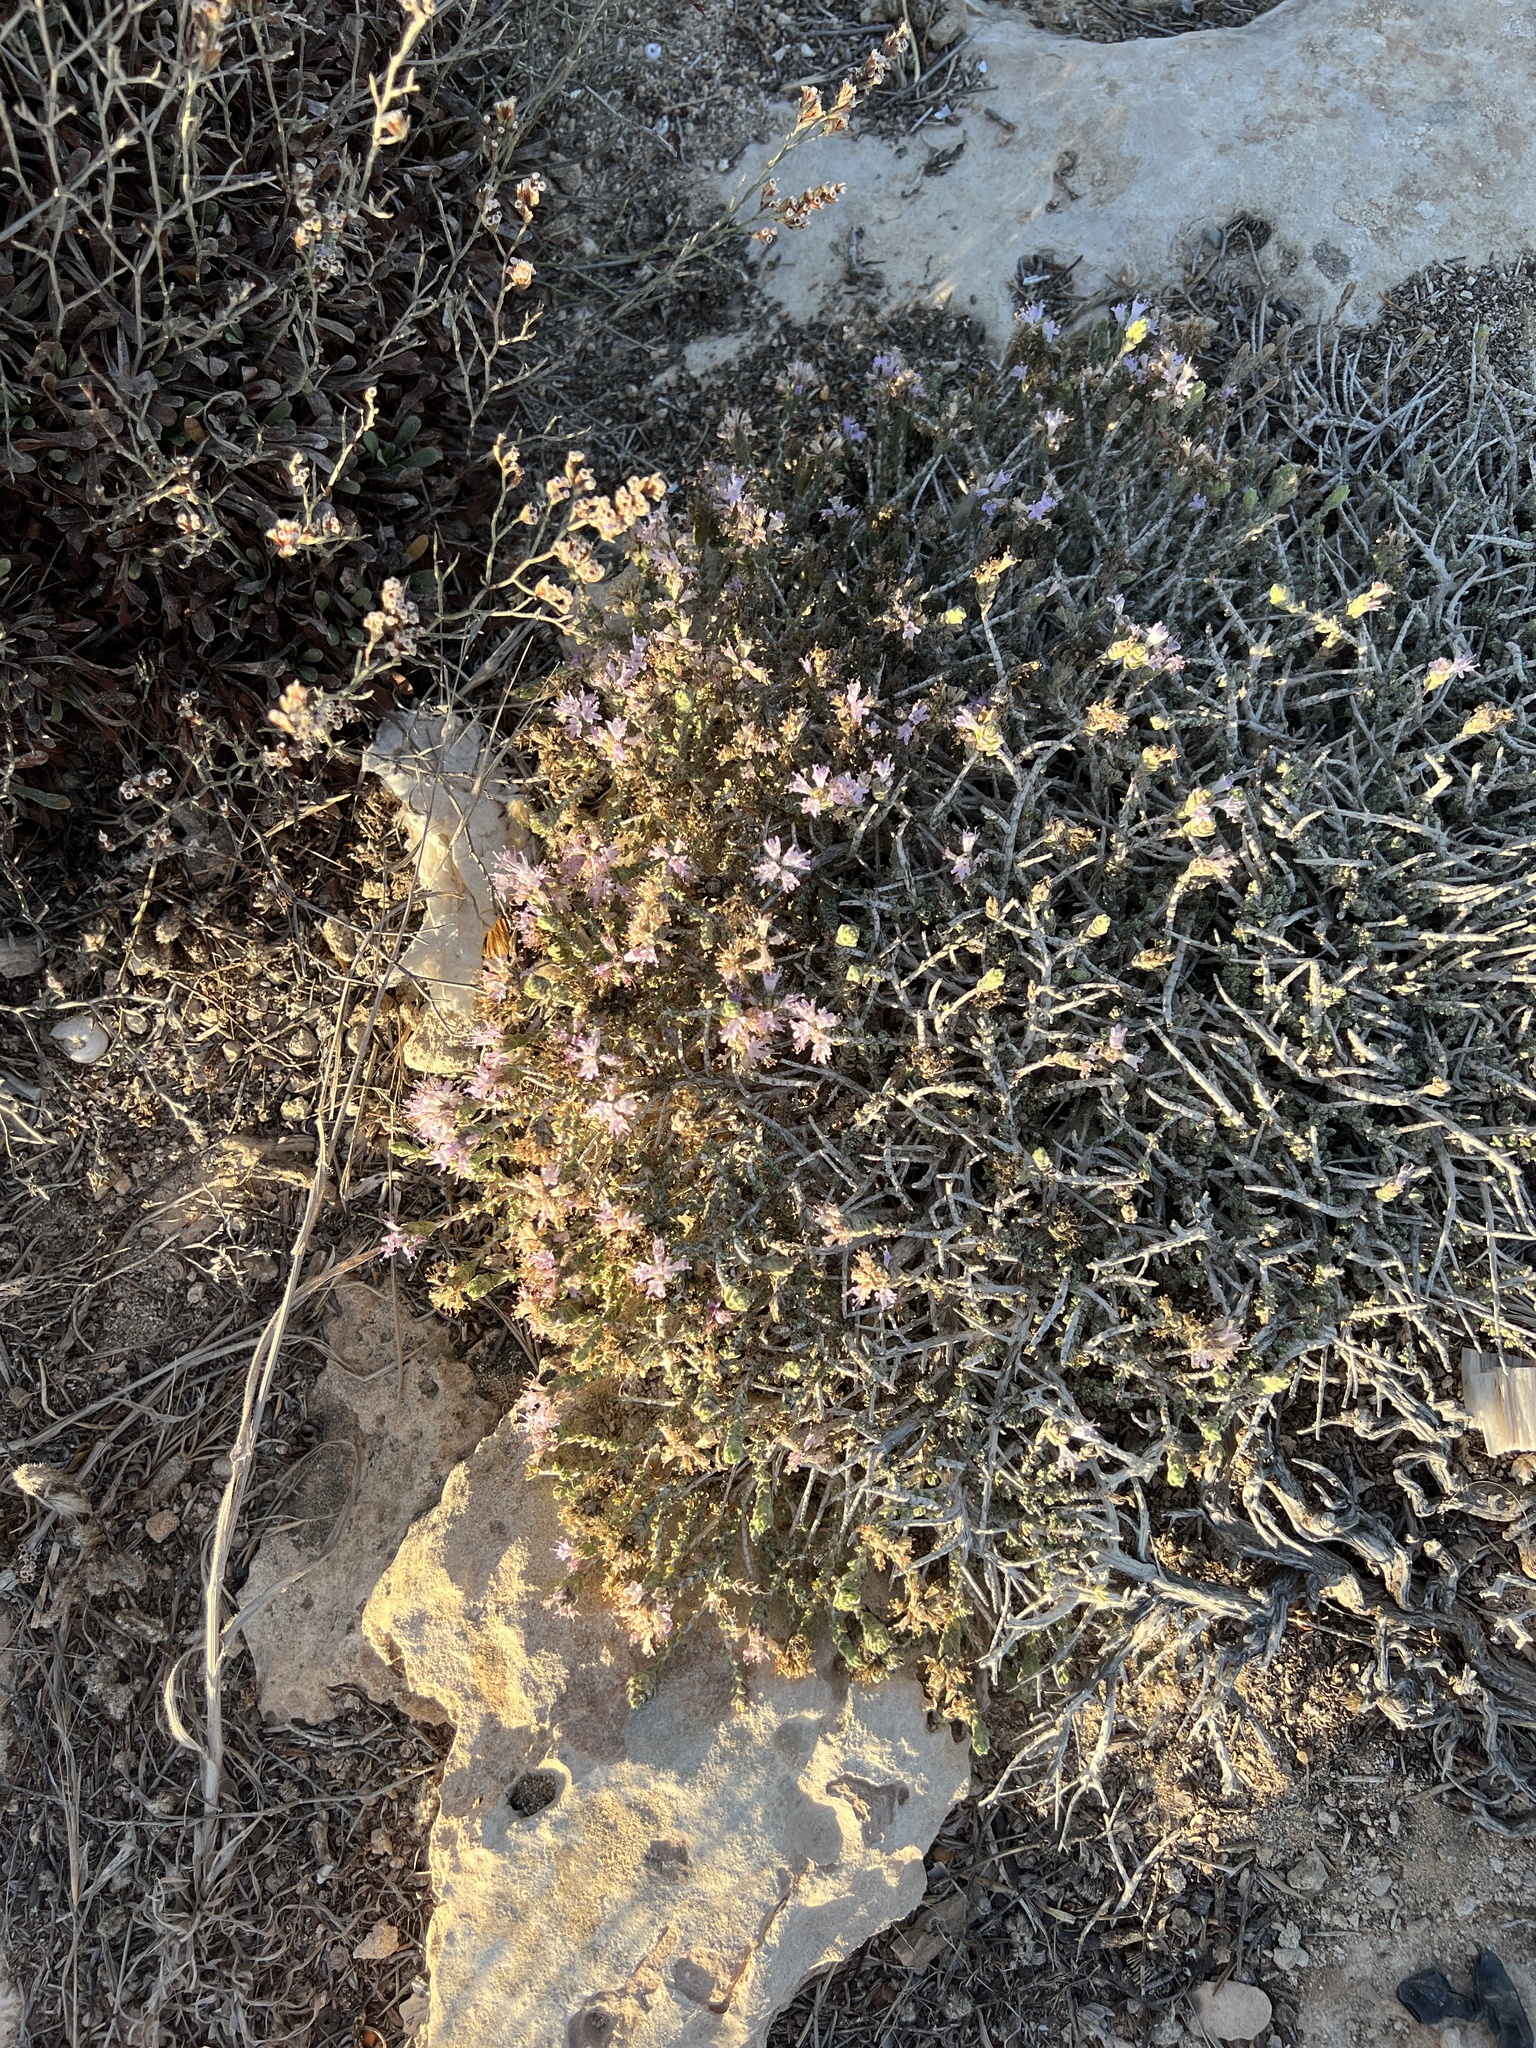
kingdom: Plantae
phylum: Tracheophyta
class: Magnoliopsida
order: Lamiales
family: Lamiaceae
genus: Thymbra
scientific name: Thymbra capitata
